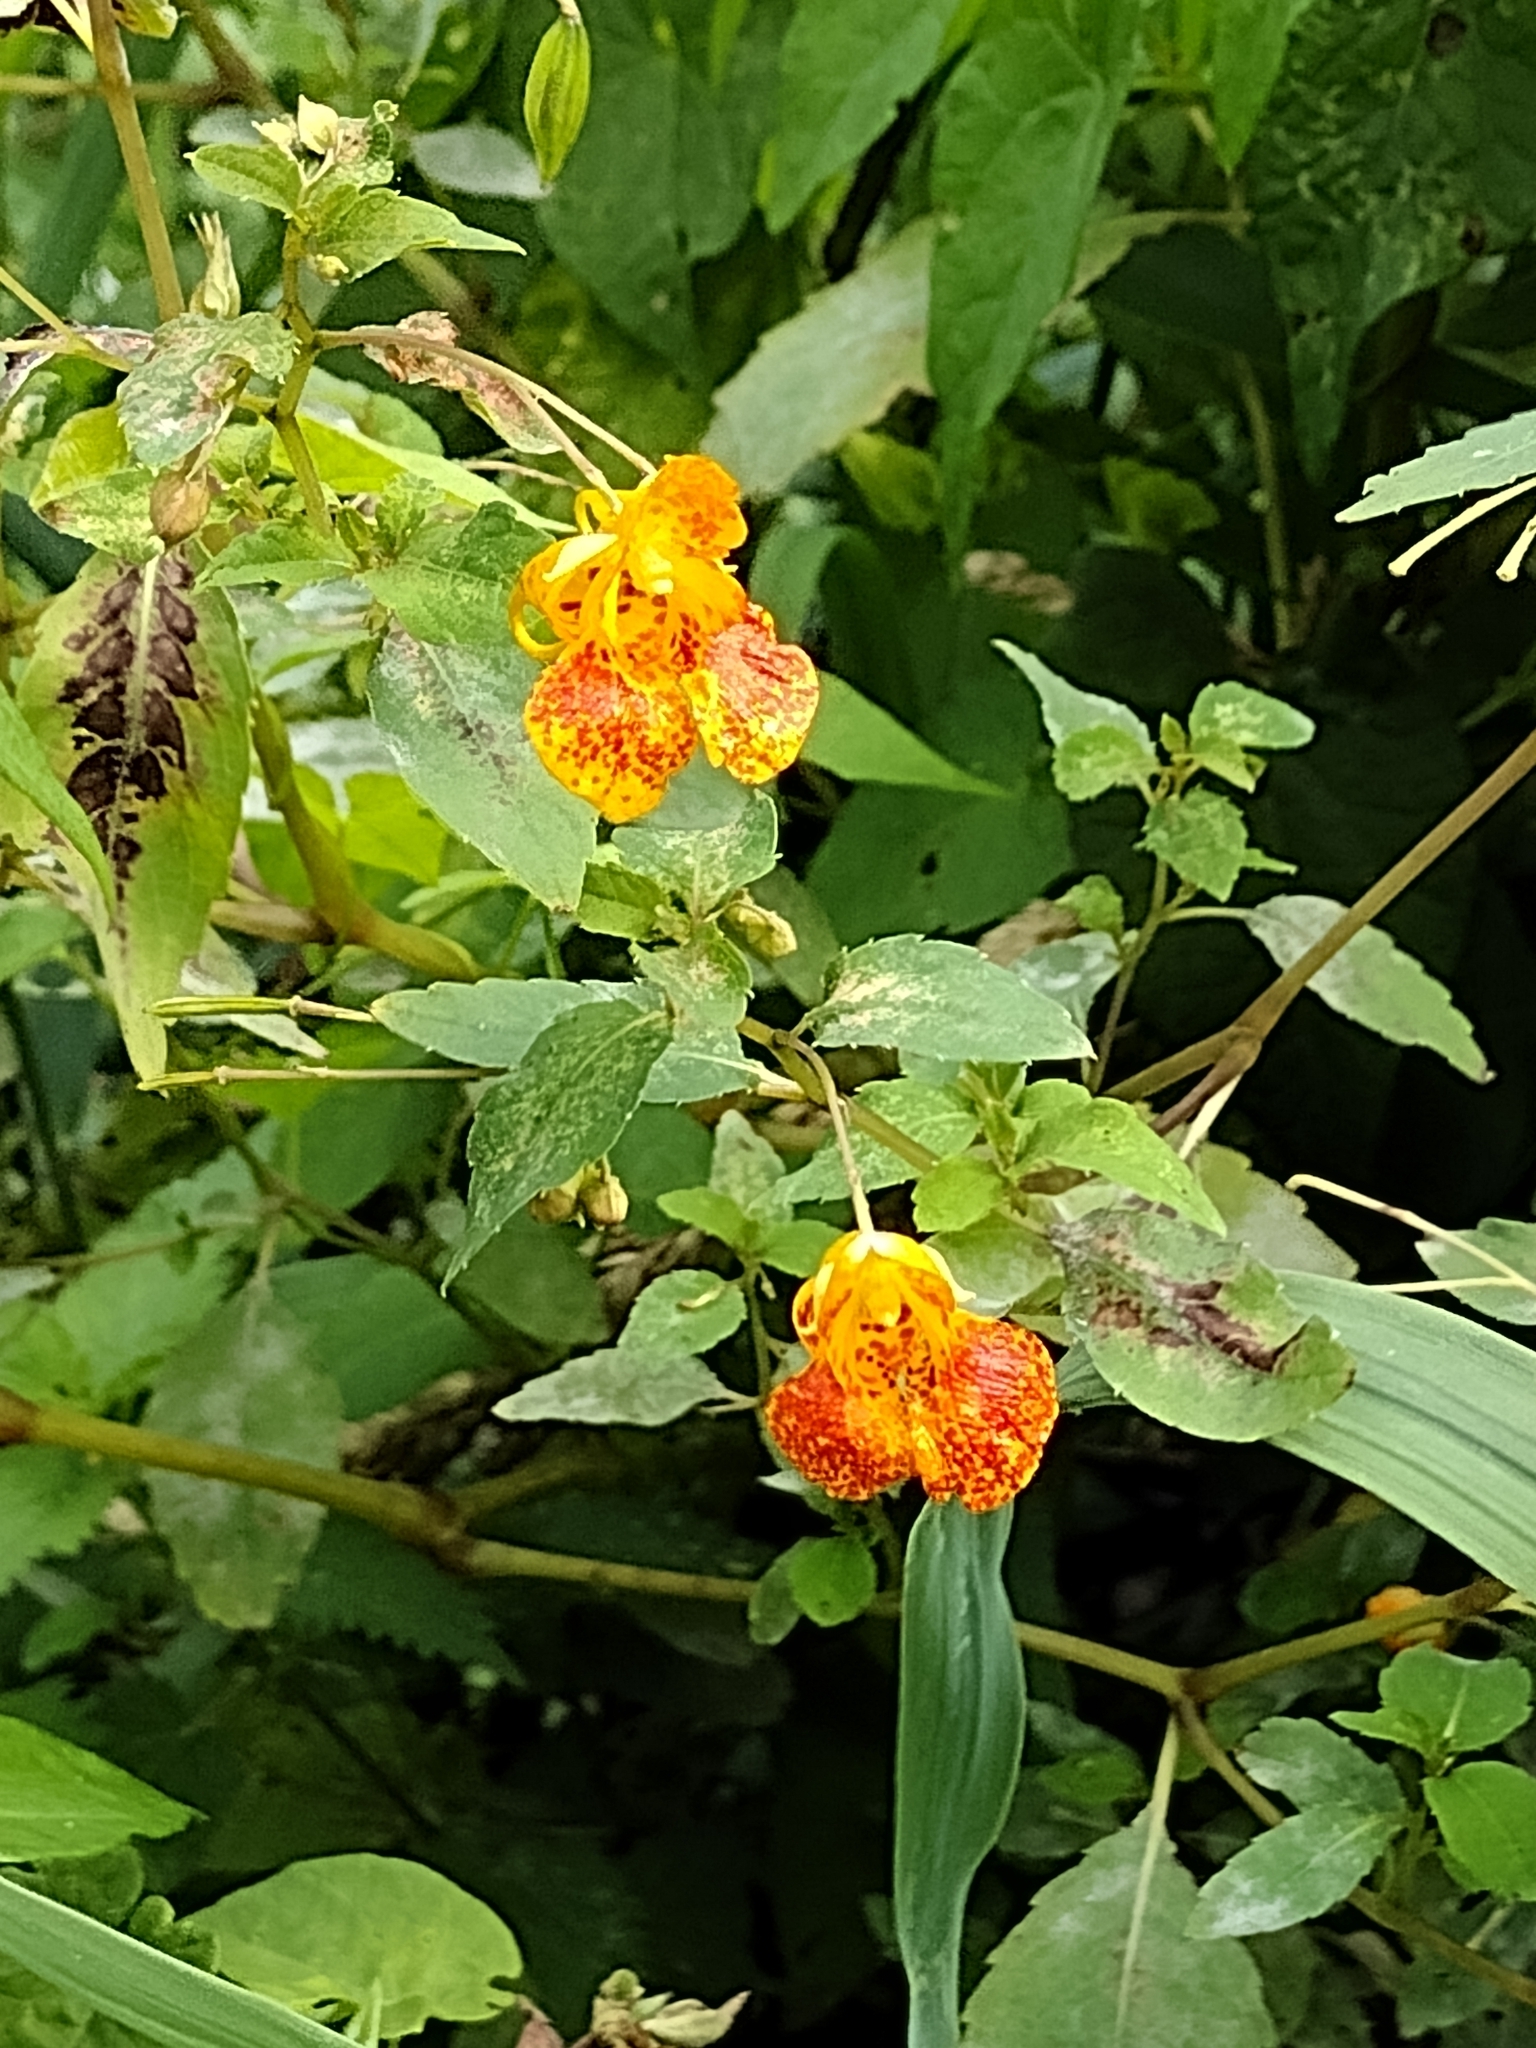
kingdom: Plantae
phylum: Tracheophyta
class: Magnoliopsida
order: Ericales
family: Balsaminaceae
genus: Impatiens
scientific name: Impatiens capensis
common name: Orange balsam
